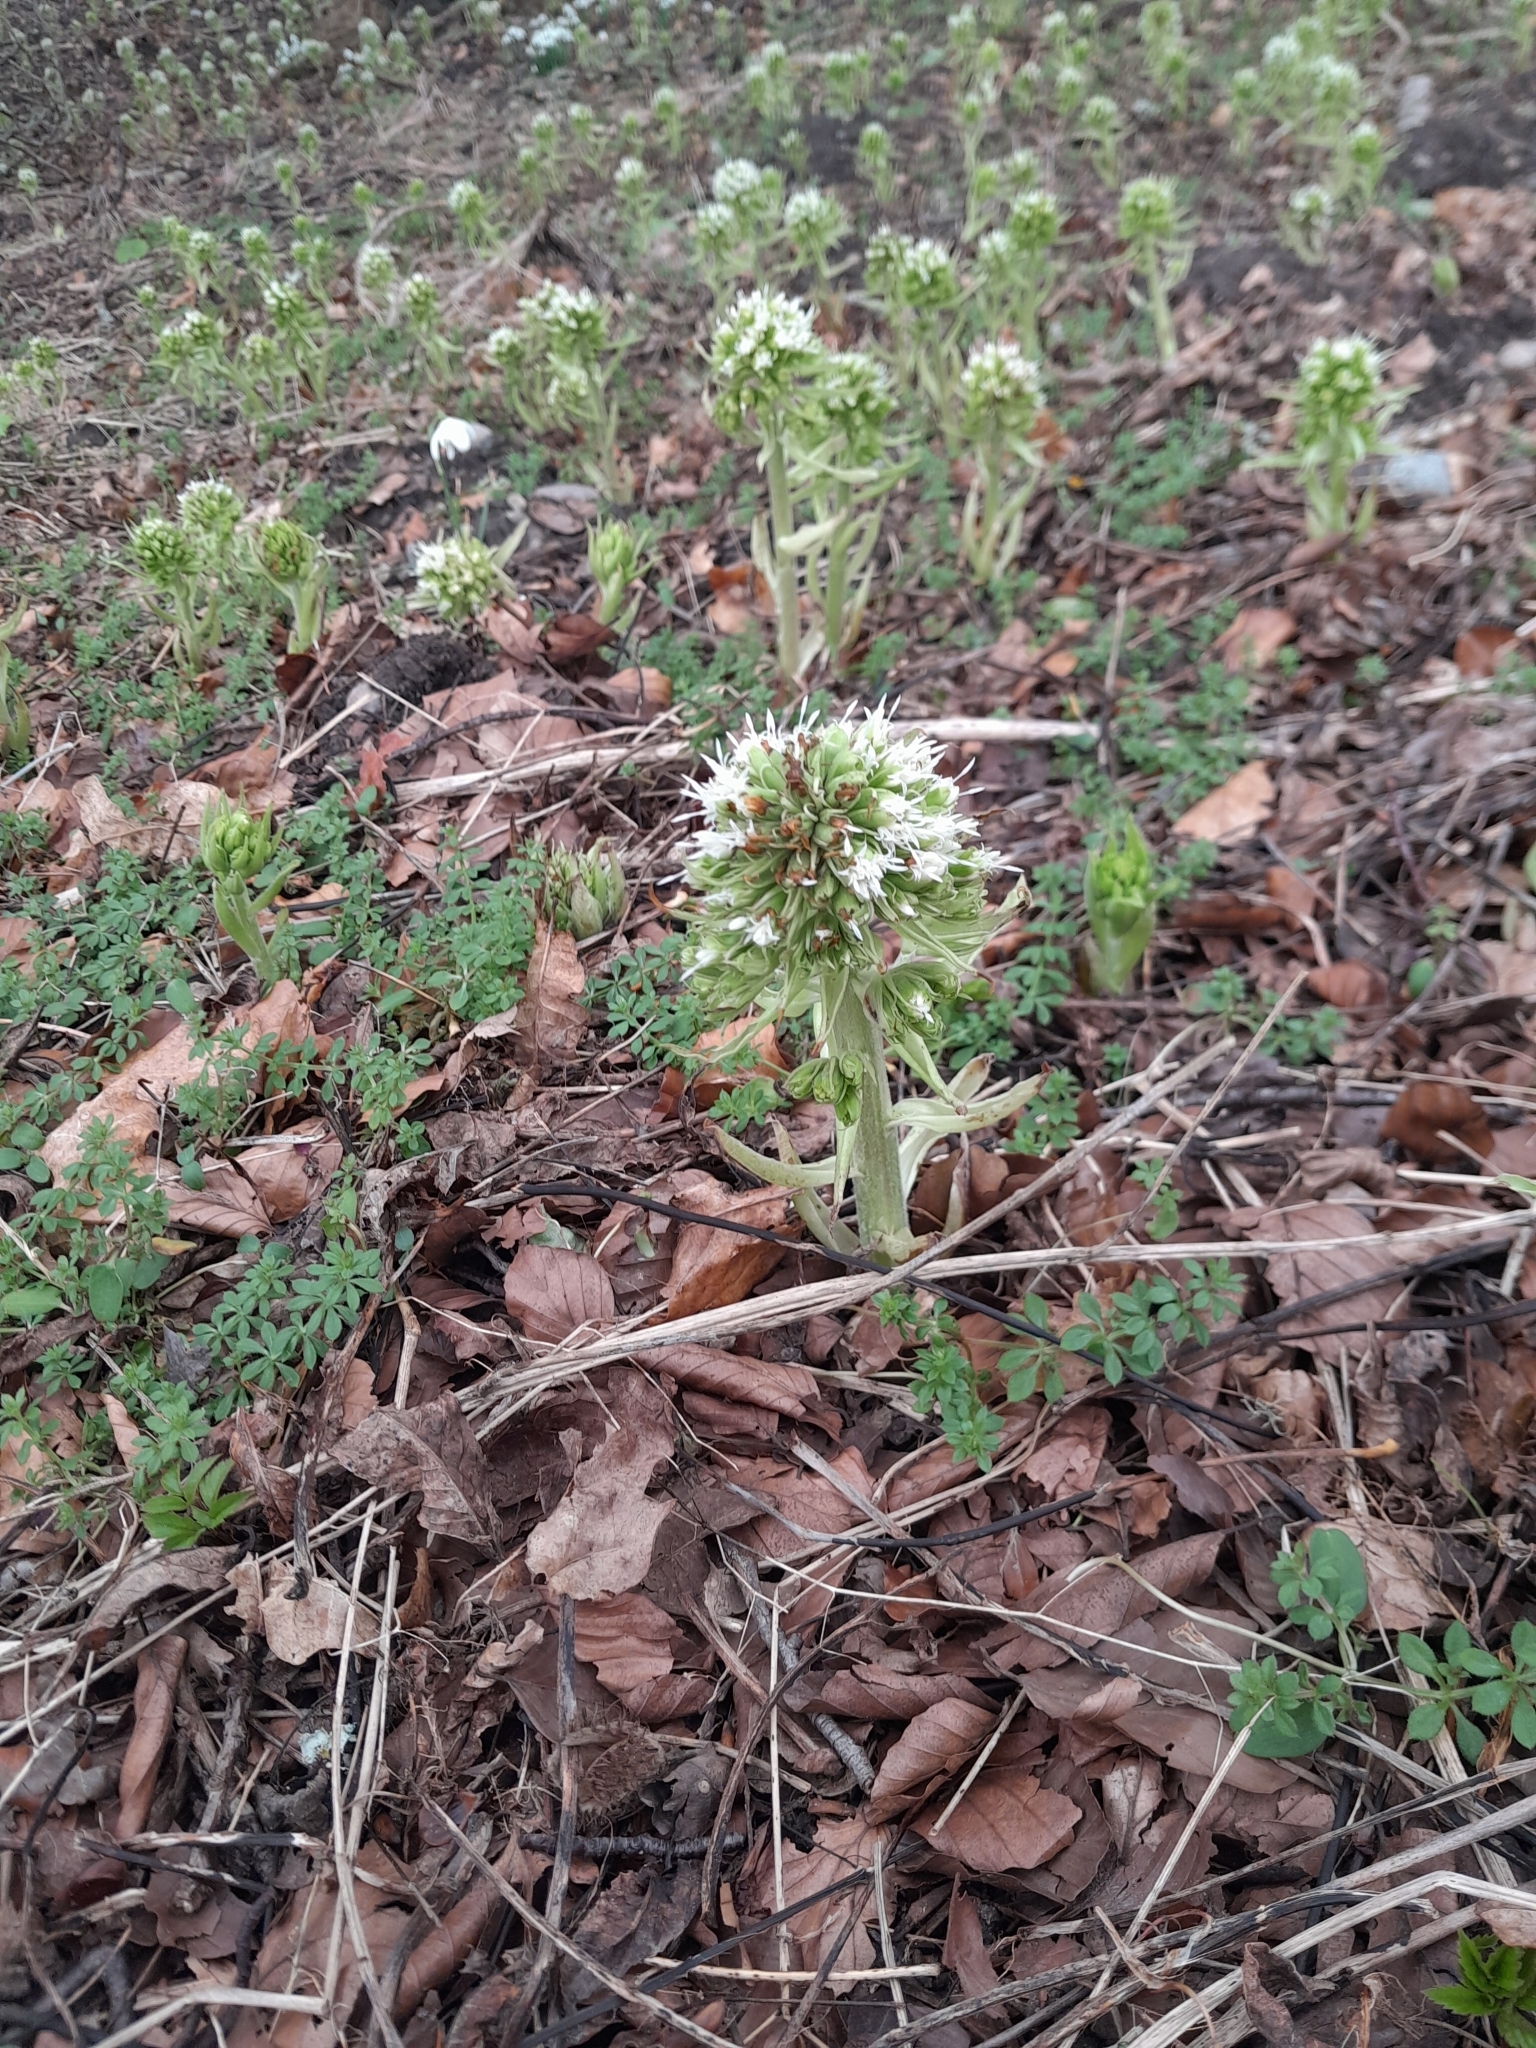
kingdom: Plantae
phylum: Tracheophyta
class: Magnoliopsida
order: Asterales
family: Asteraceae
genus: Petasites
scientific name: Petasites albus
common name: White butterbur
